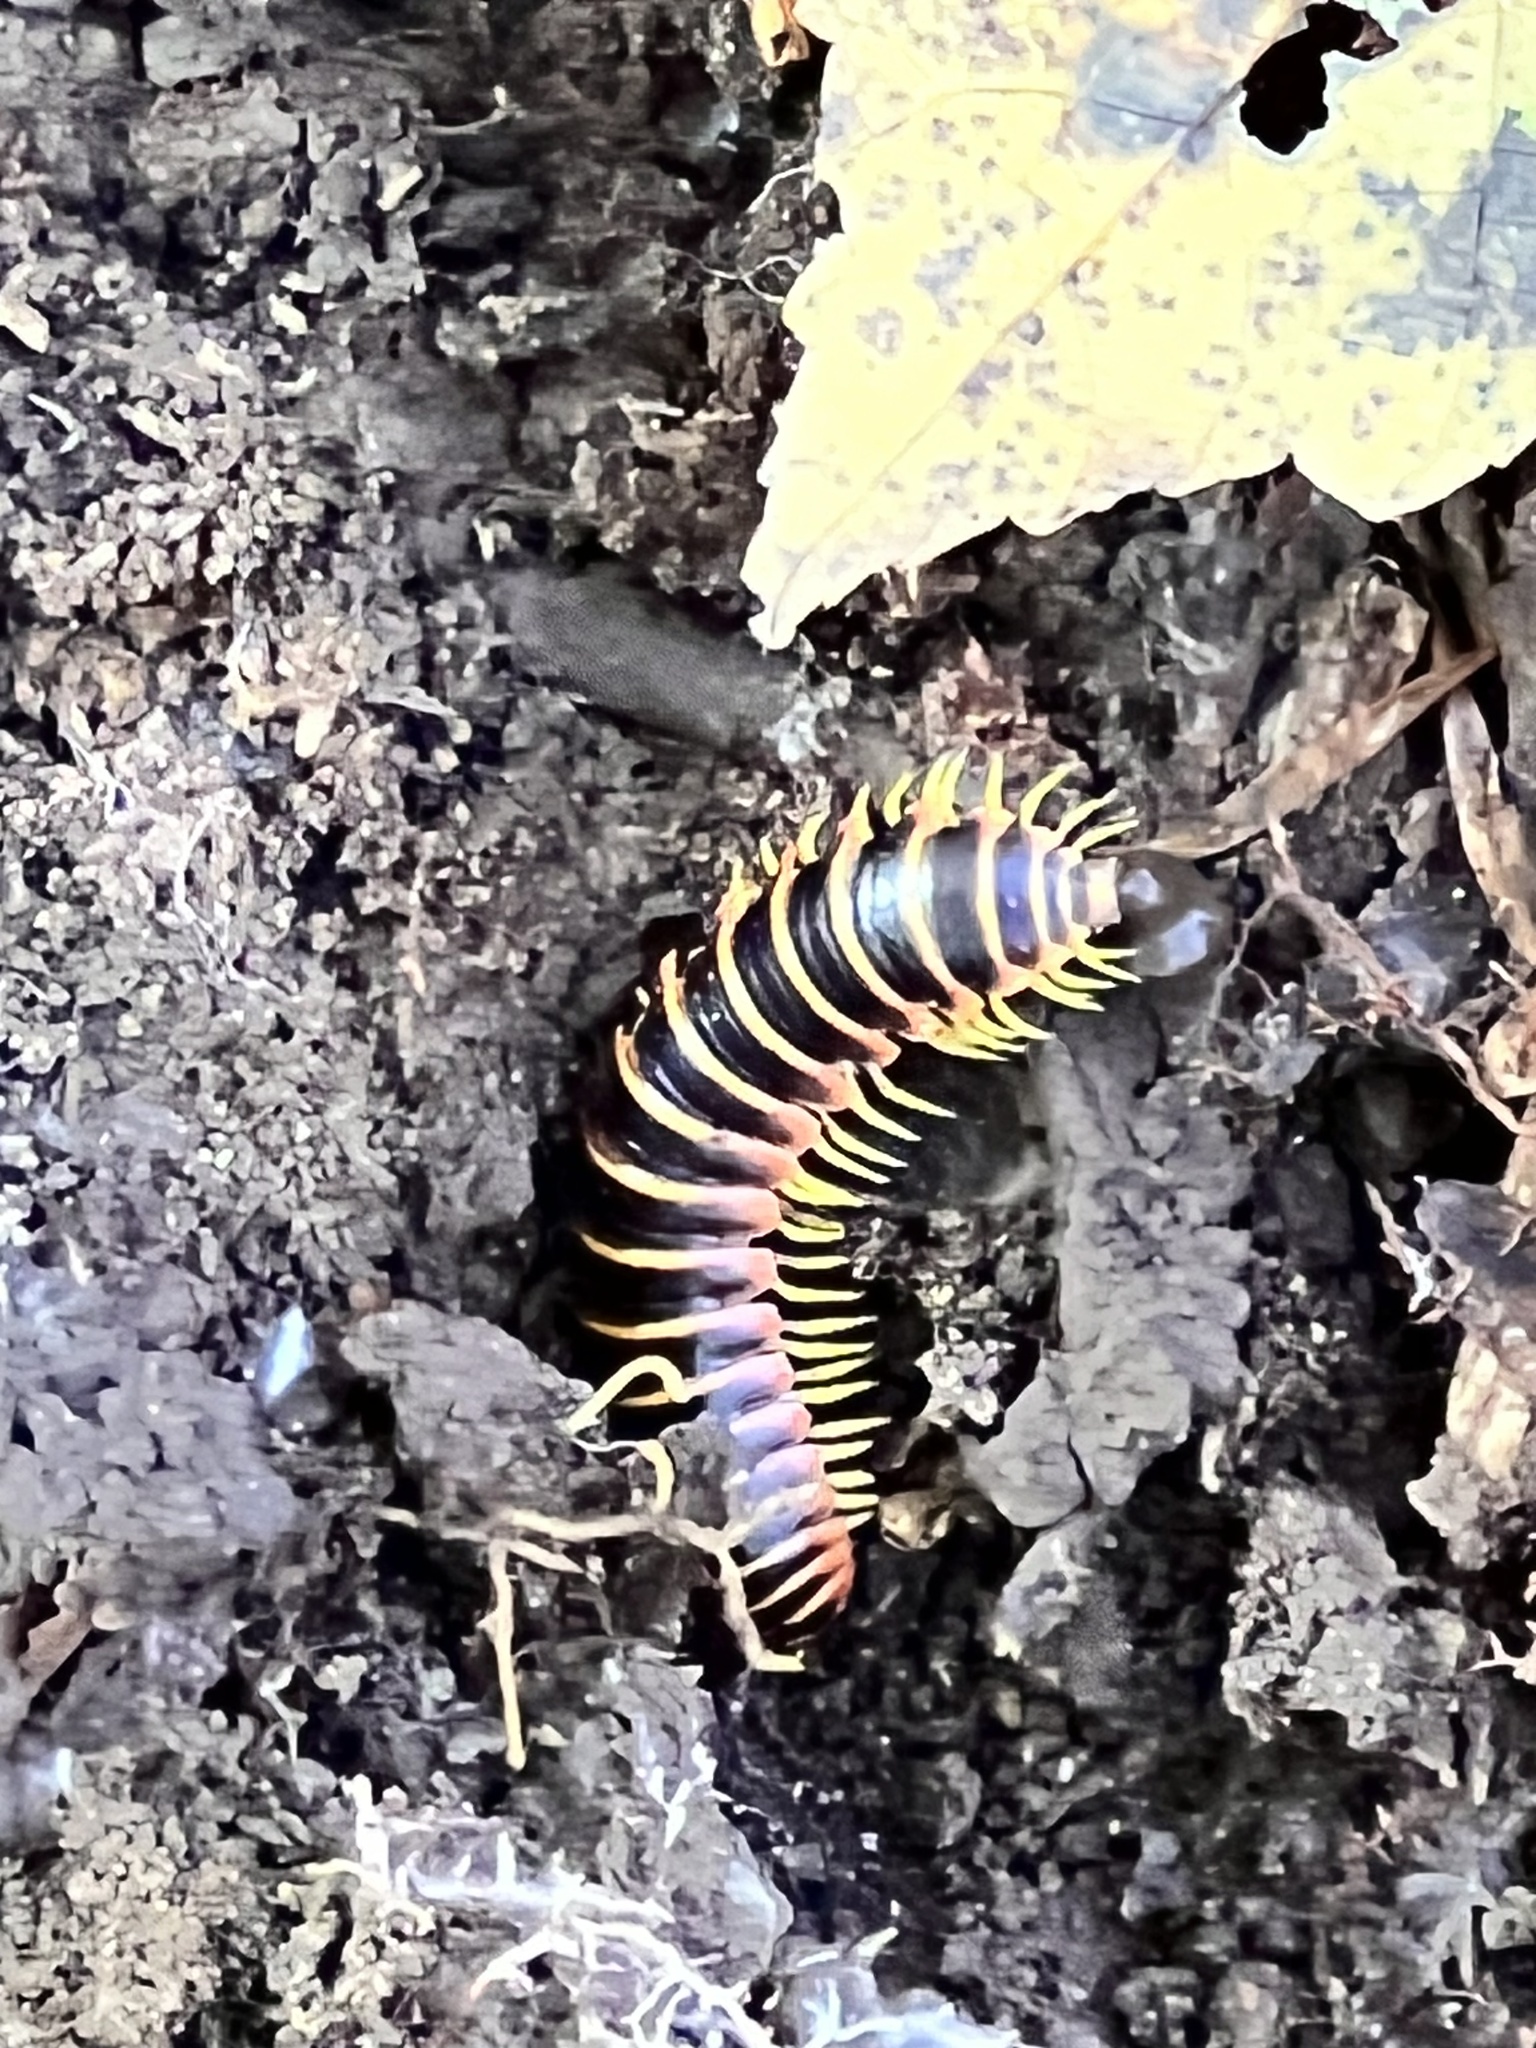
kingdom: Animalia
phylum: Arthropoda
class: Diplopoda
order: Polydesmida
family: Xystodesmidae
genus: Apheloria
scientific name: Apheloria virginiensis
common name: Black-and-gold flat millipede
